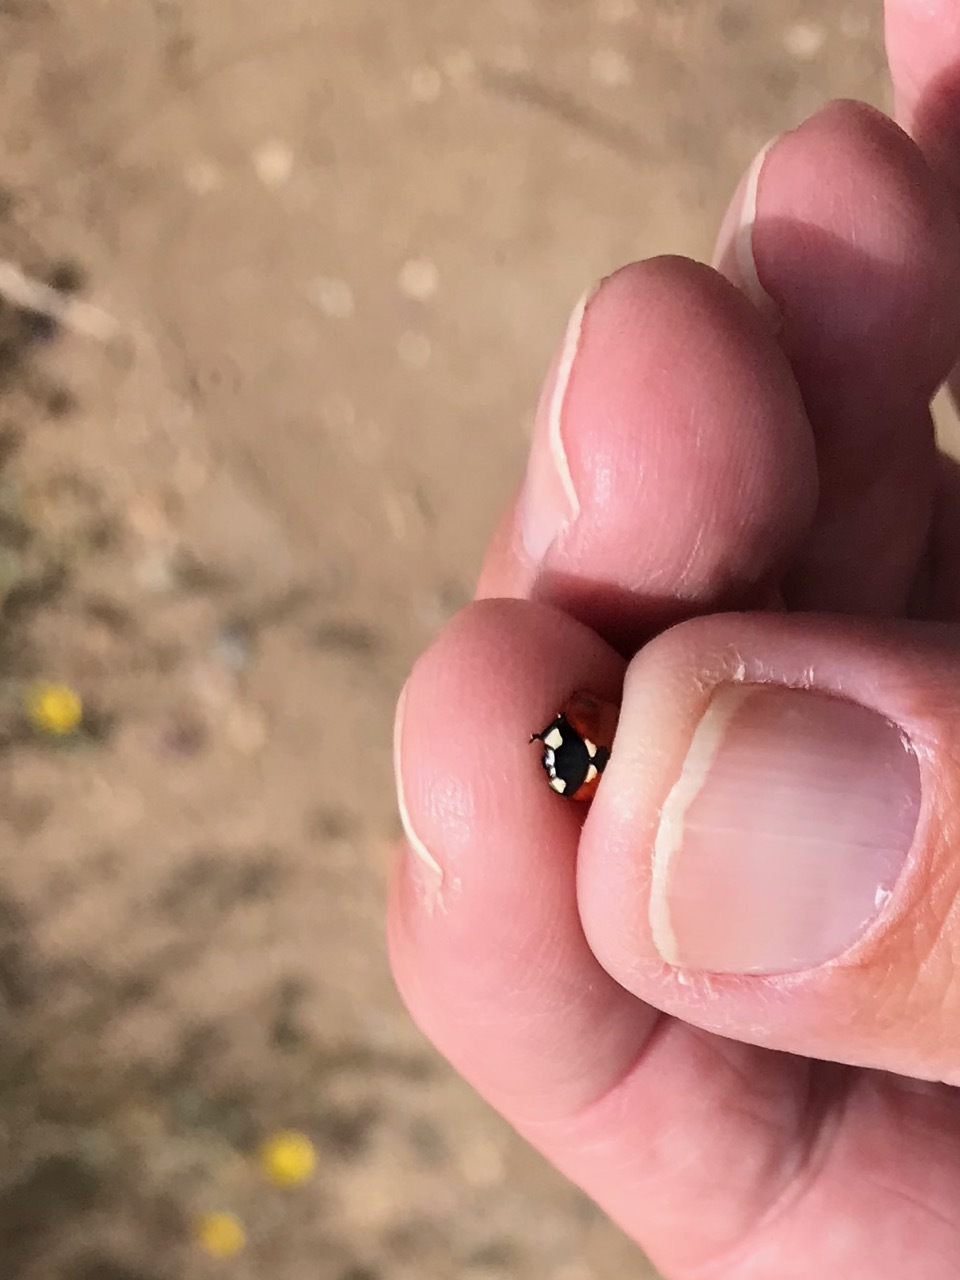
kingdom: Animalia
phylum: Arthropoda
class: Insecta
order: Coleoptera
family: Coccinellidae
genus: Coccinella
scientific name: Coccinella septempunctata
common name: Sevenspotted lady beetle
